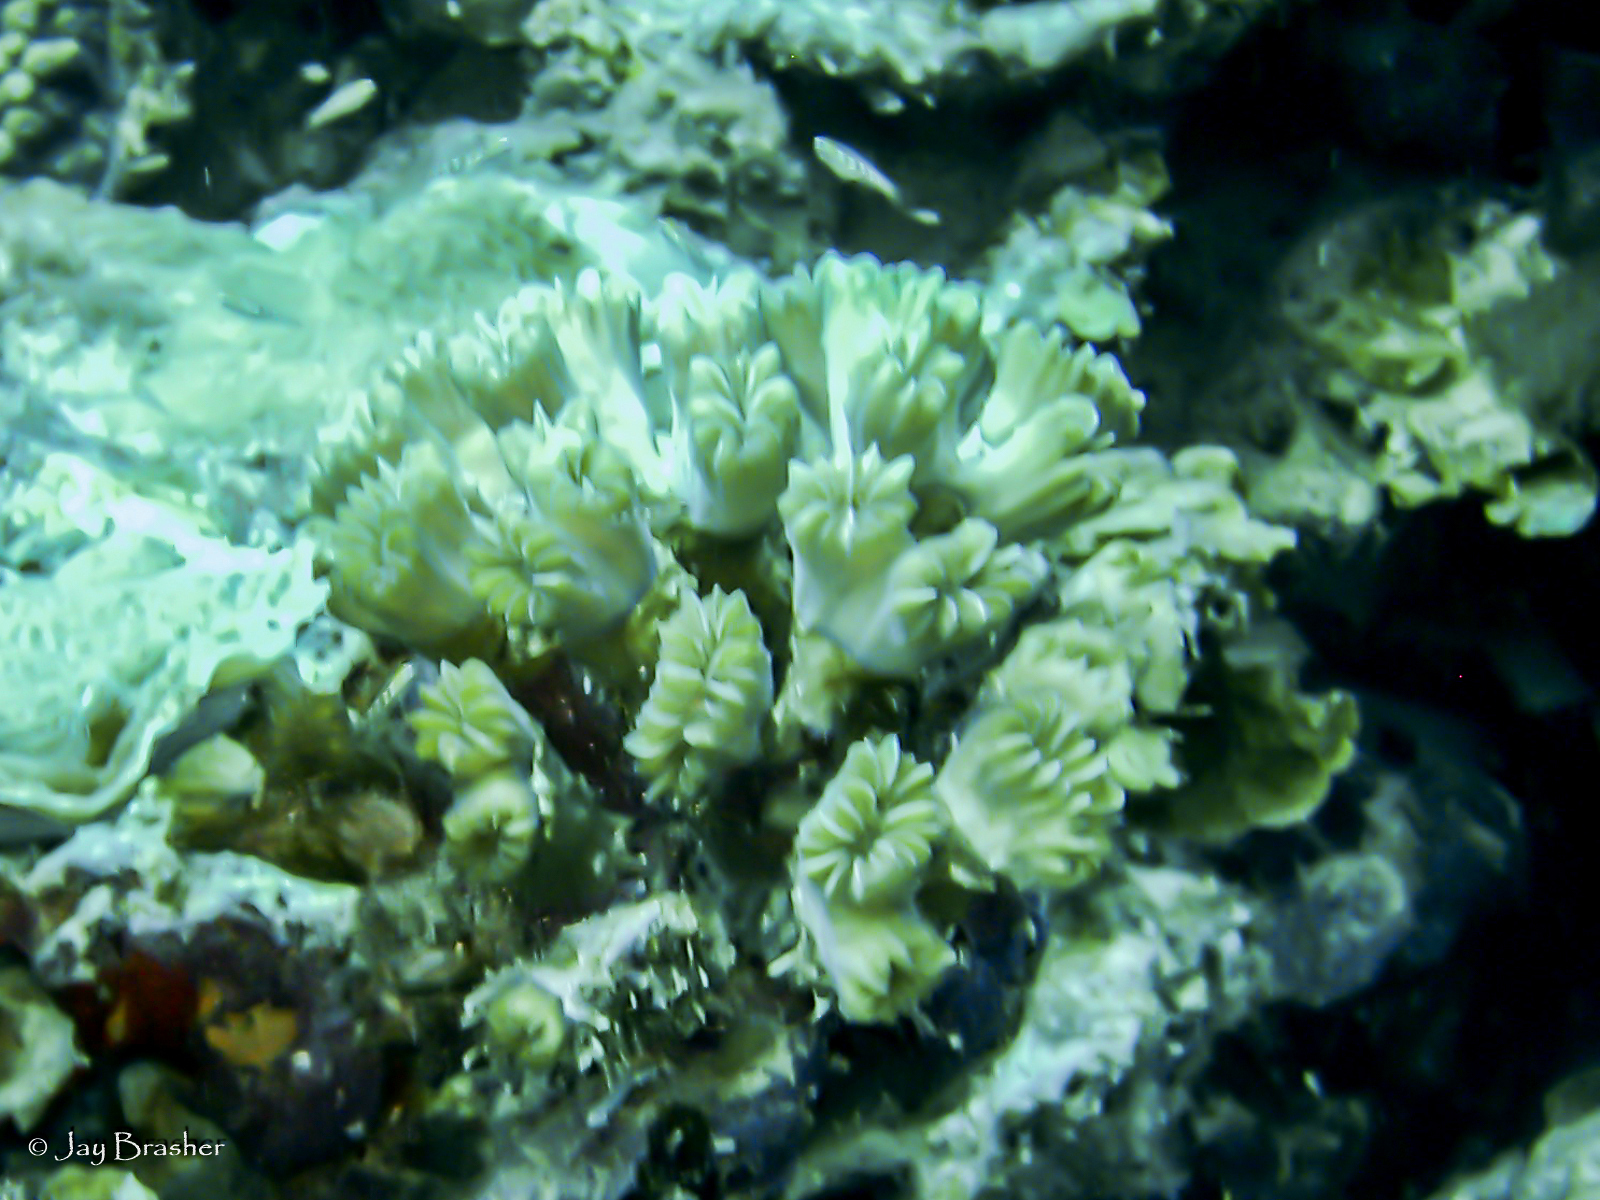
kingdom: Animalia
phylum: Cnidaria
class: Anthozoa
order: Scleractinia
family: Meandrinidae
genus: Eusmilia
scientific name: Eusmilia fastigiata
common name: Smooth flower coral
